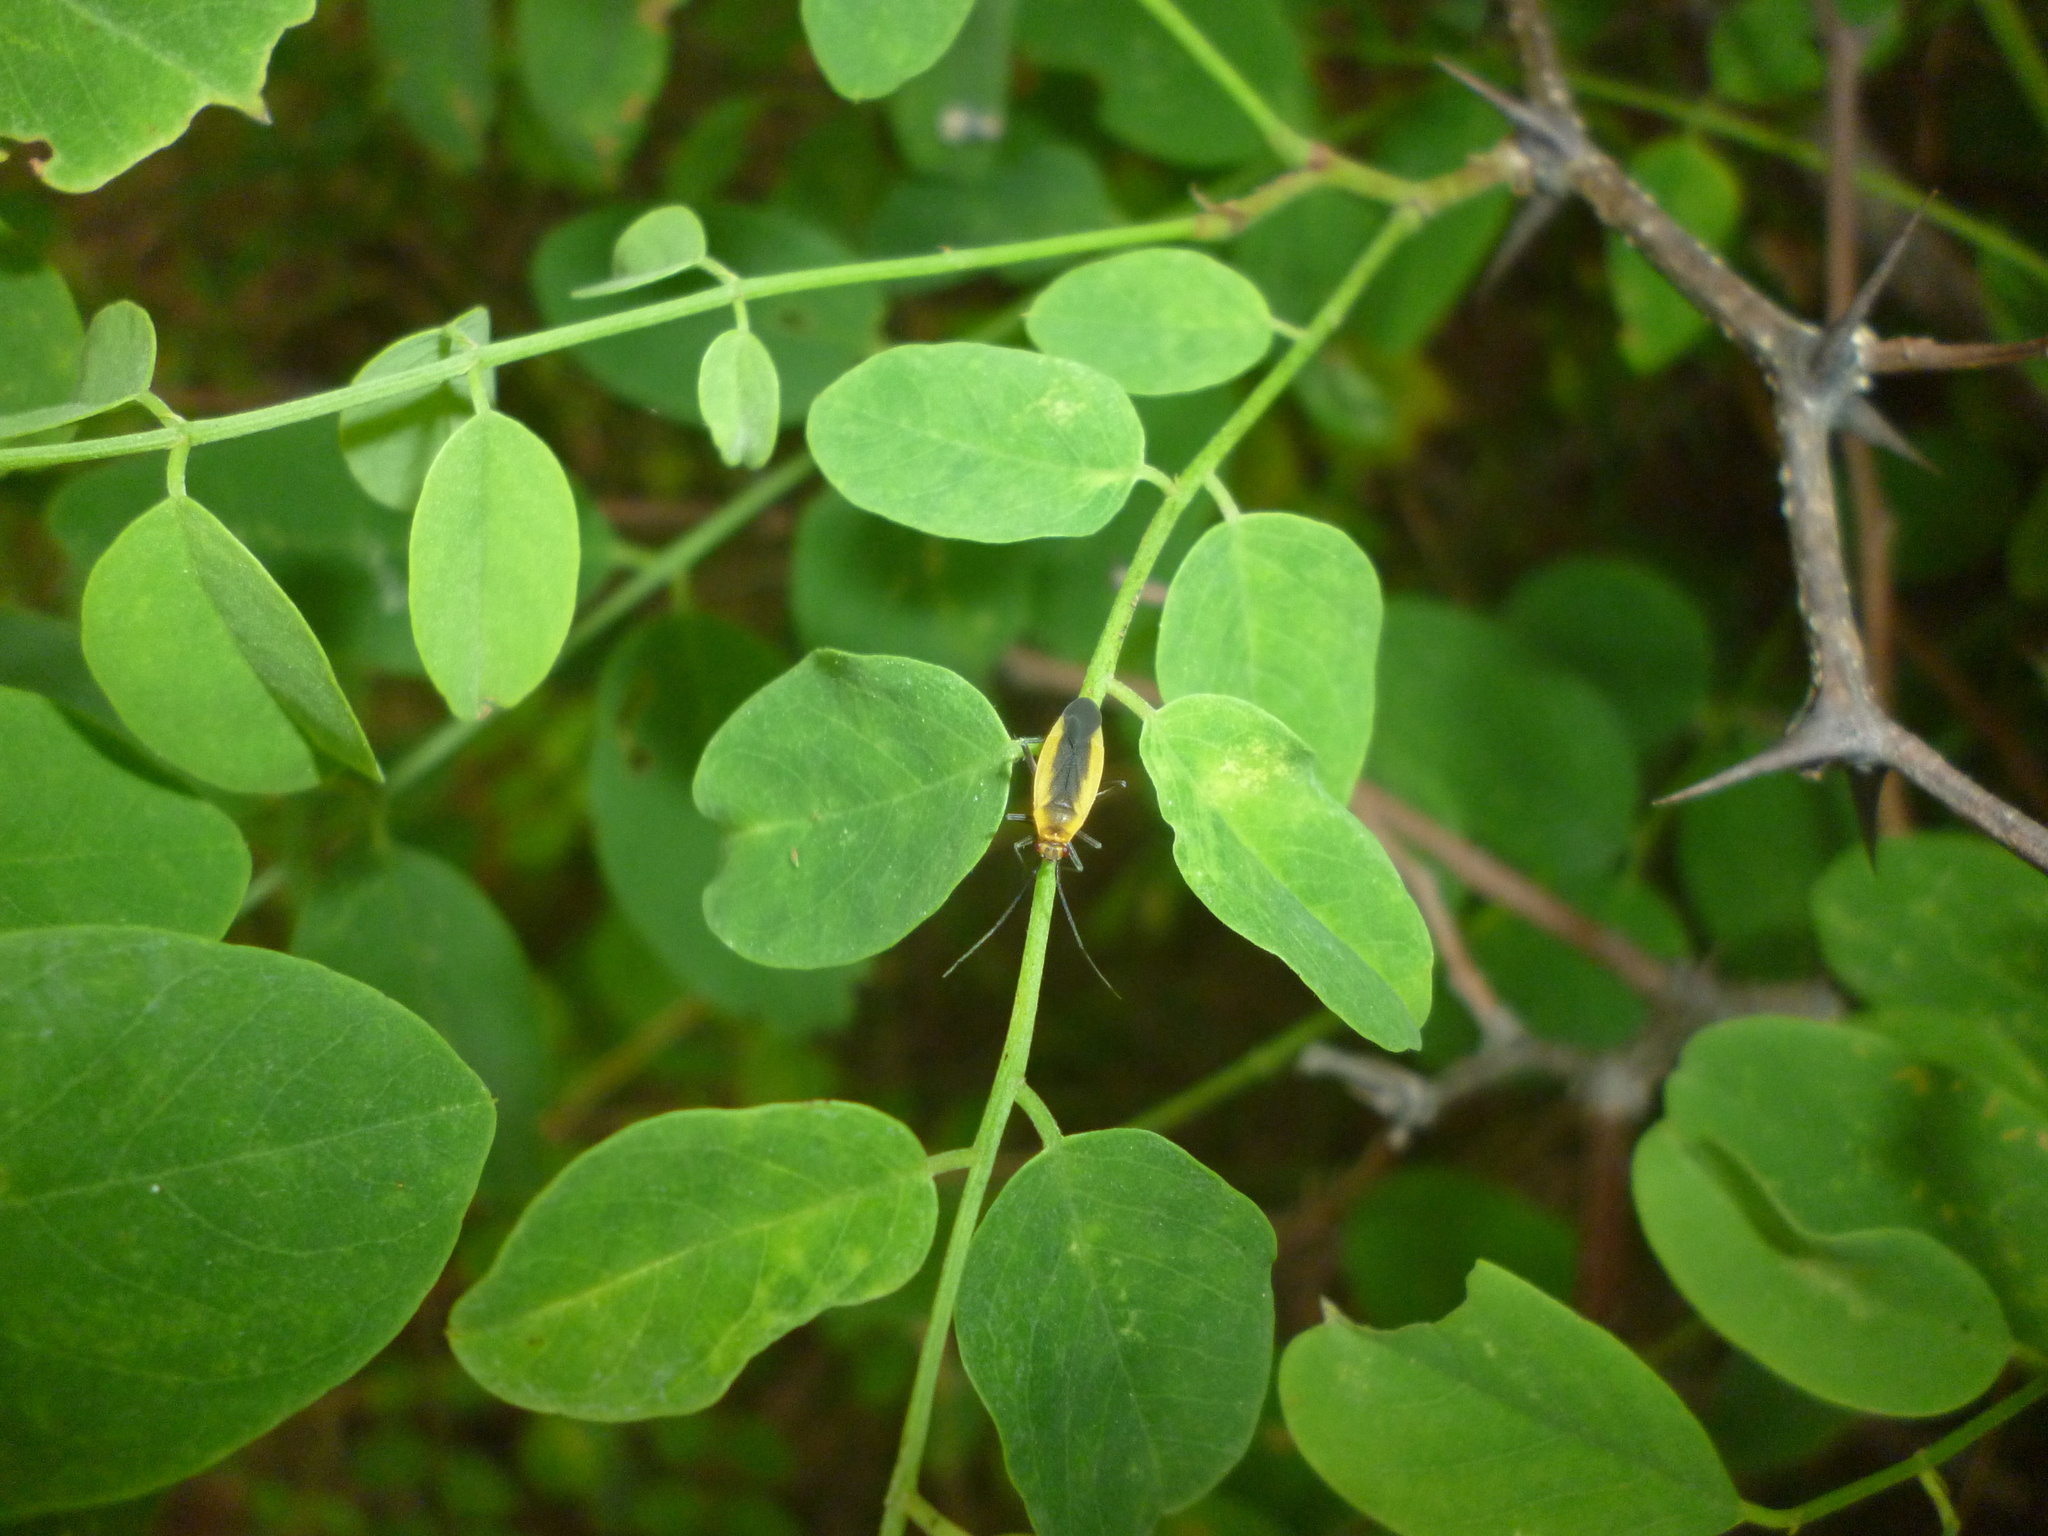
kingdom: Plantae
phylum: Tracheophyta
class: Magnoliopsida
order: Fabales
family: Fabaceae
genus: Robinia
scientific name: Robinia pseudoacacia
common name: Black locust
